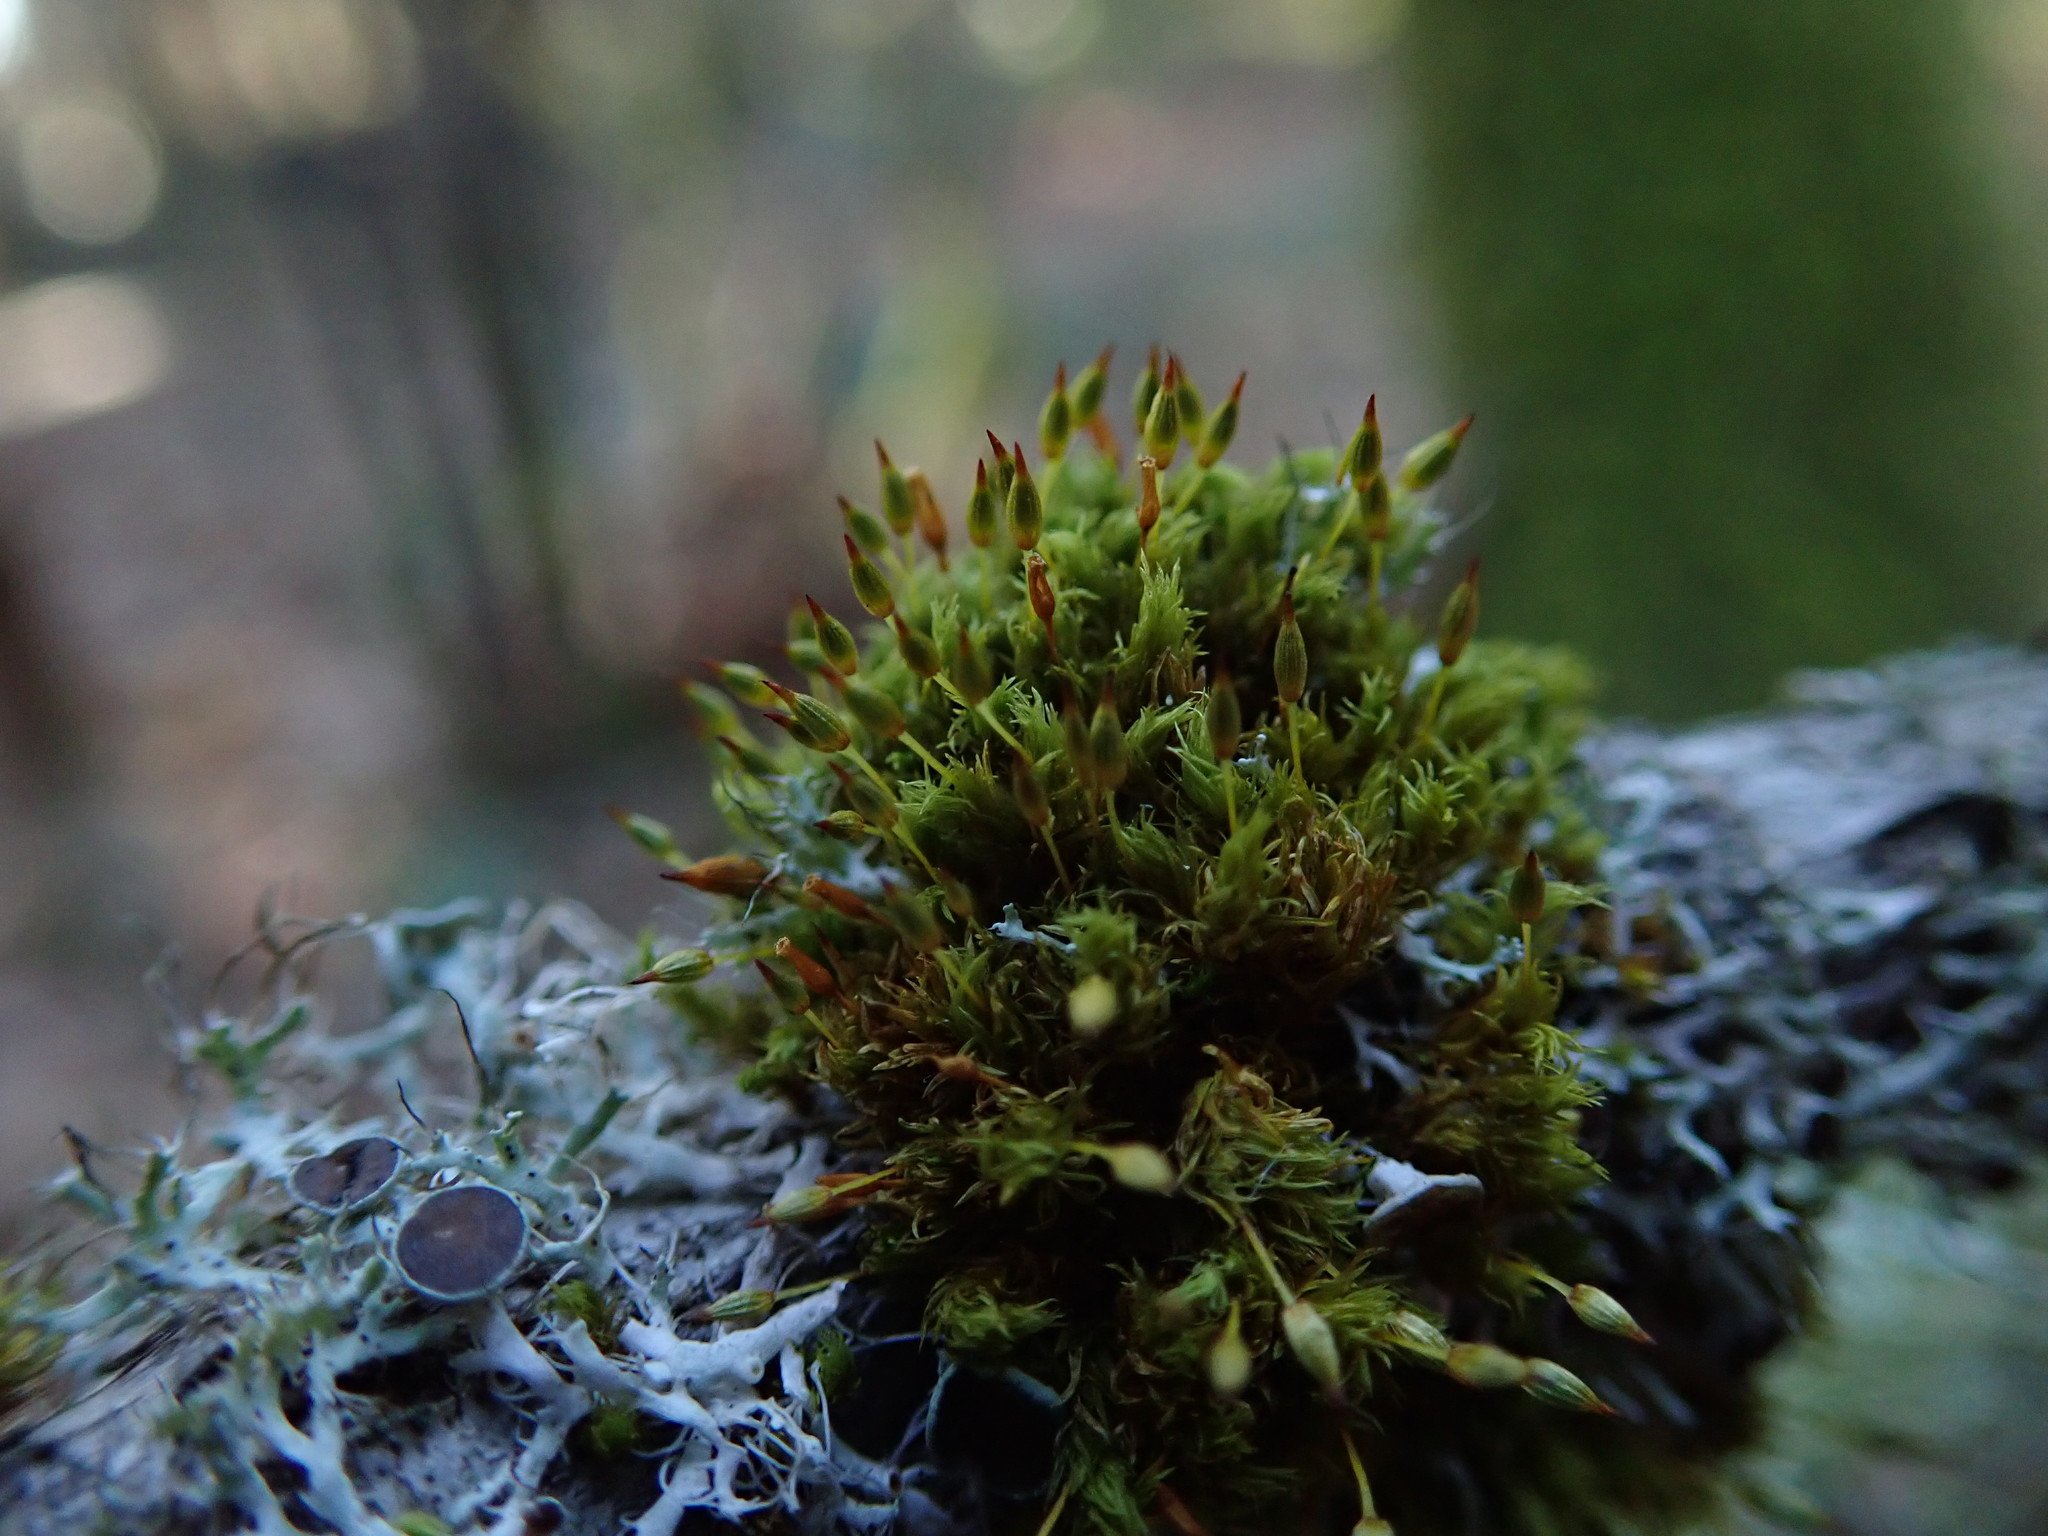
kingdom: Plantae
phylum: Bryophyta
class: Bryopsida
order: Orthotrichales
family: Orthotrichaceae
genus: Orthotrichum
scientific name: Orthotrichum consimile
